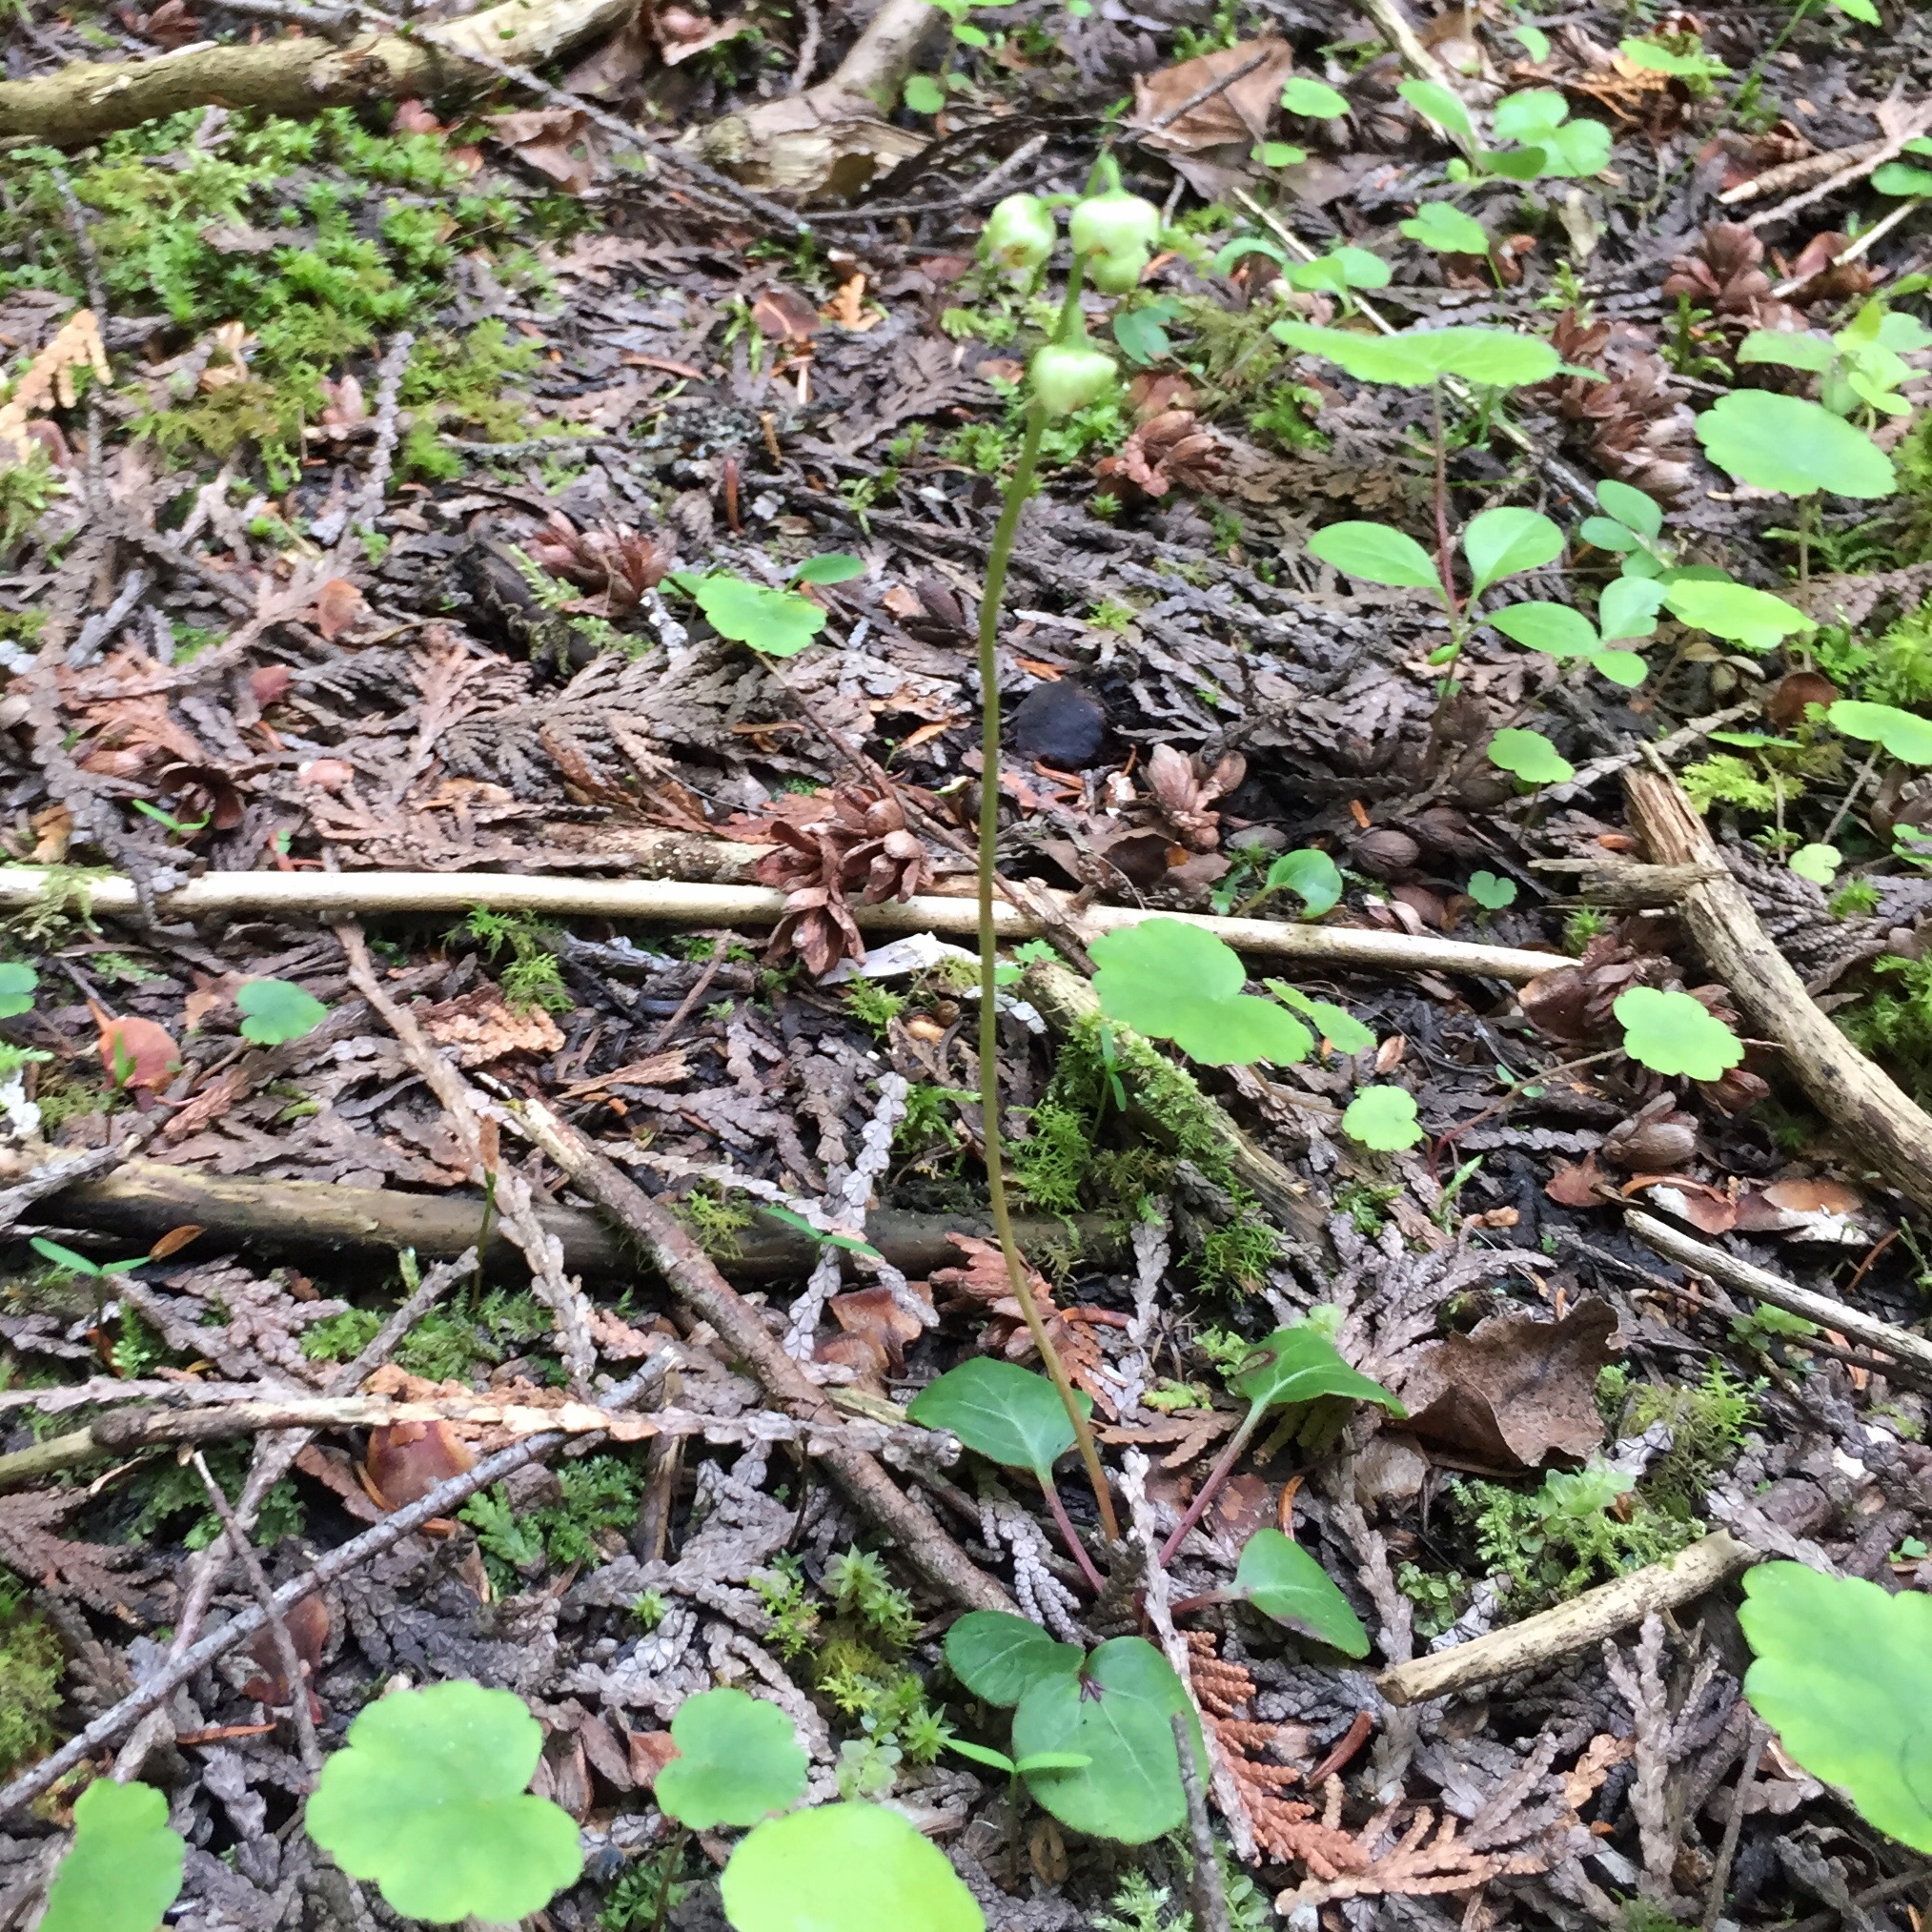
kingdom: Plantae
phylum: Tracheophyta
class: Magnoliopsida
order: Ericales
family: Ericaceae
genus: Pyrola
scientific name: Pyrola chlorantha
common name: Green wintergreen
